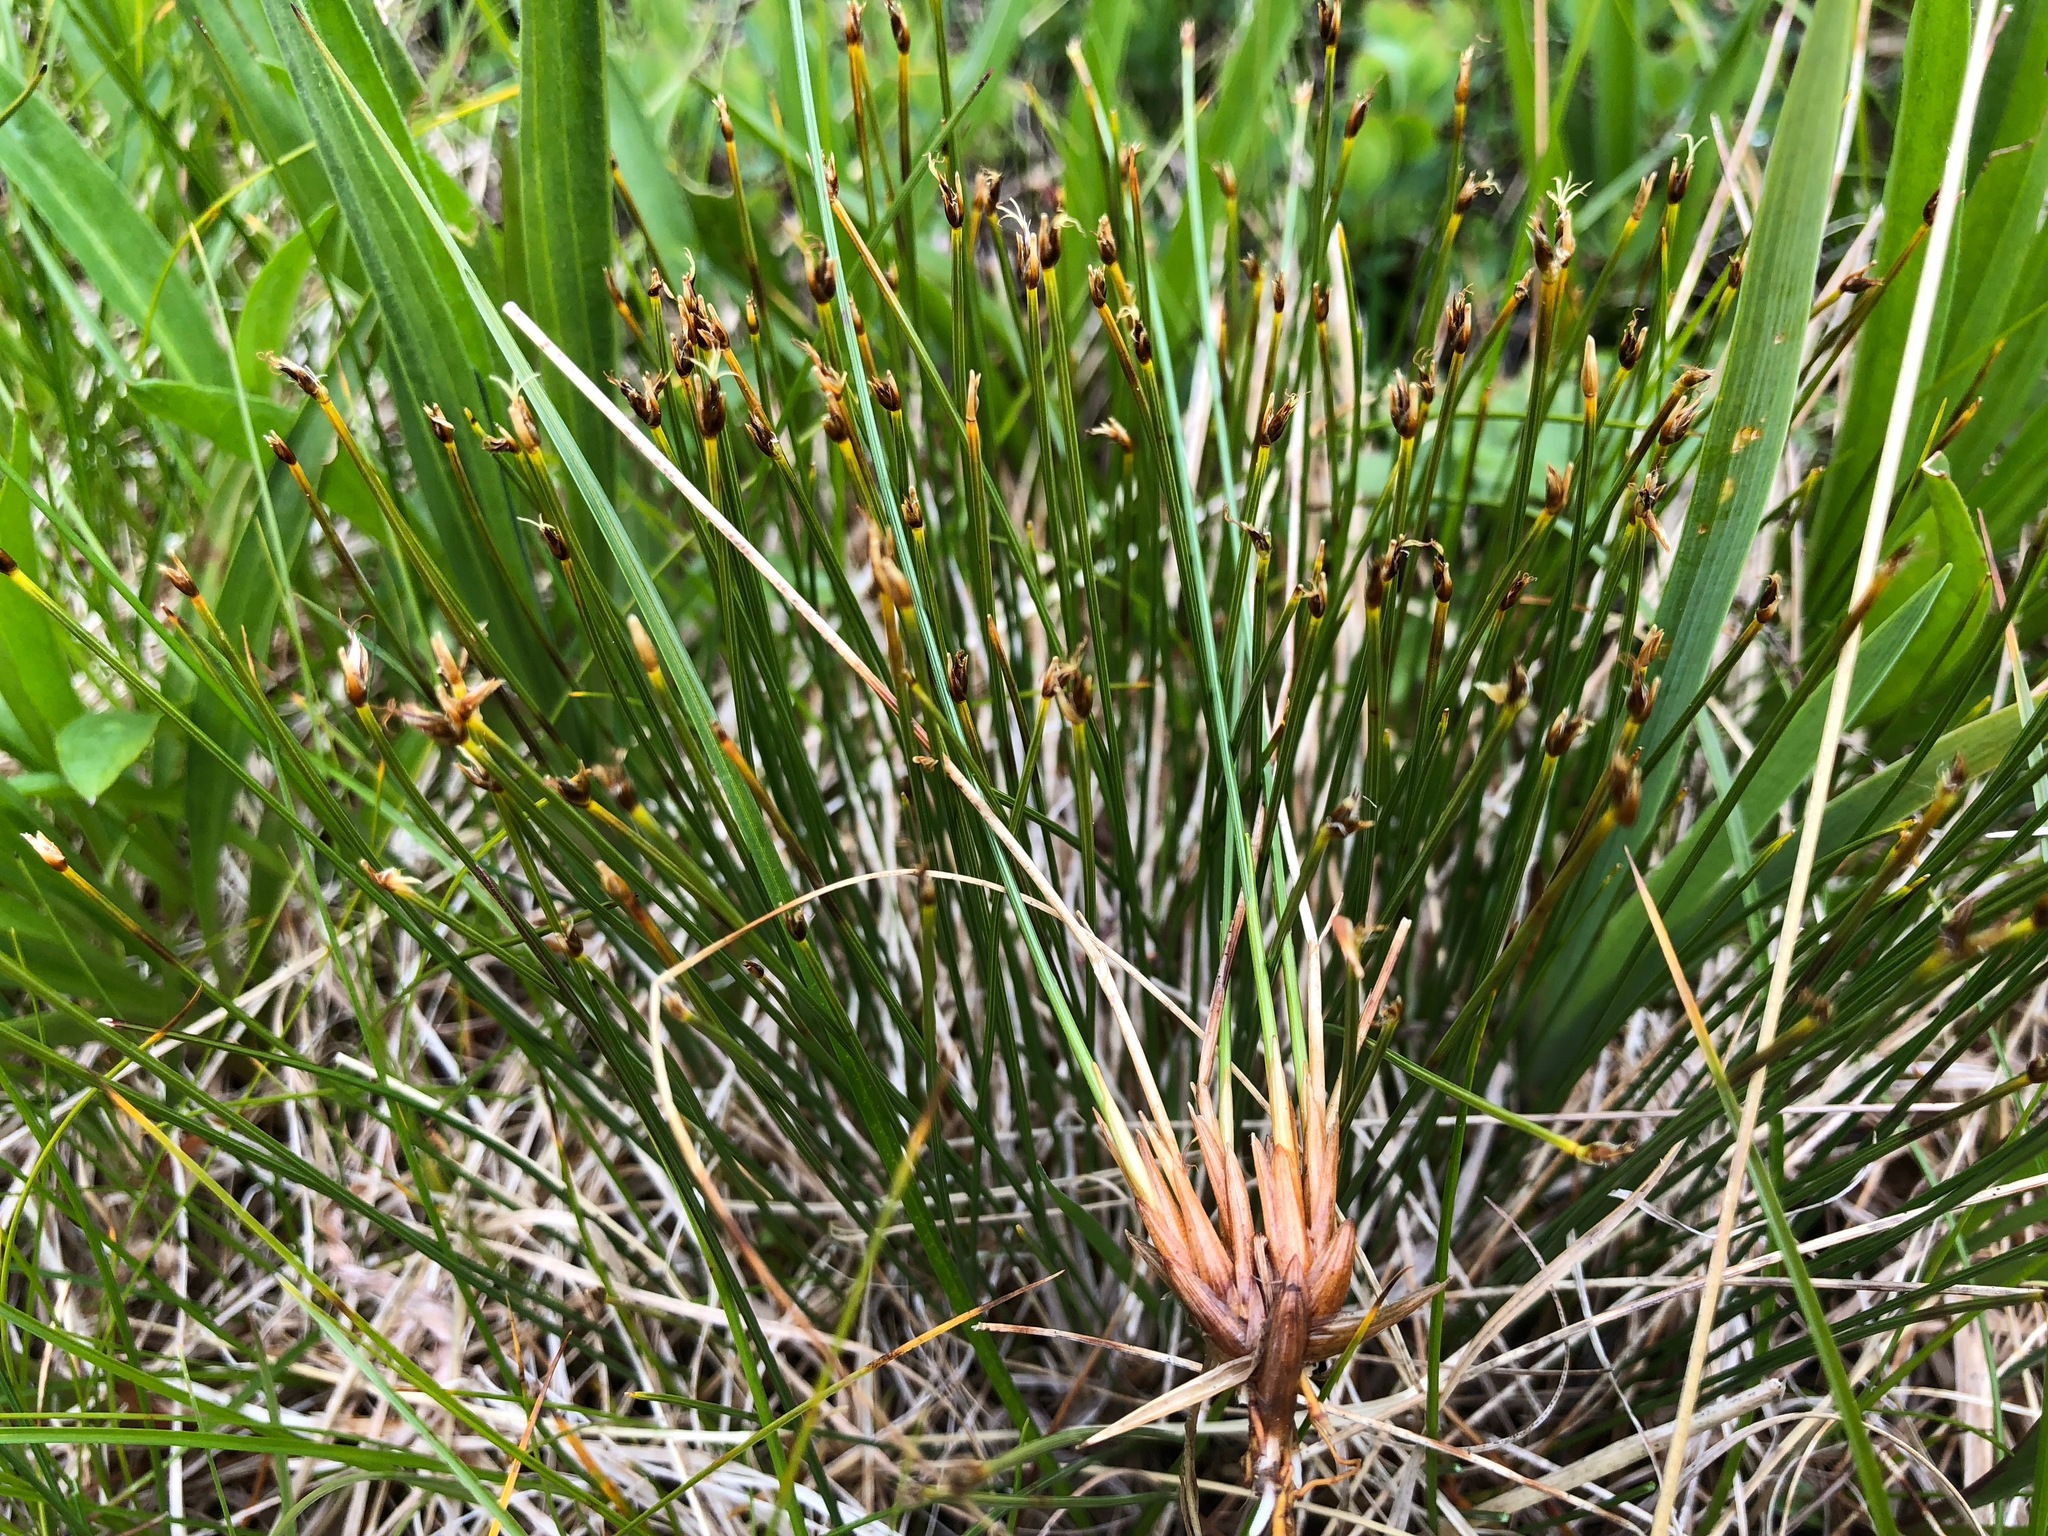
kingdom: Plantae
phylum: Tracheophyta
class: Liliopsida
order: Poales
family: Cyperaceae
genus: Trichophorum
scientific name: Trichophorum cespitosum
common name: Cespitose bulrush
